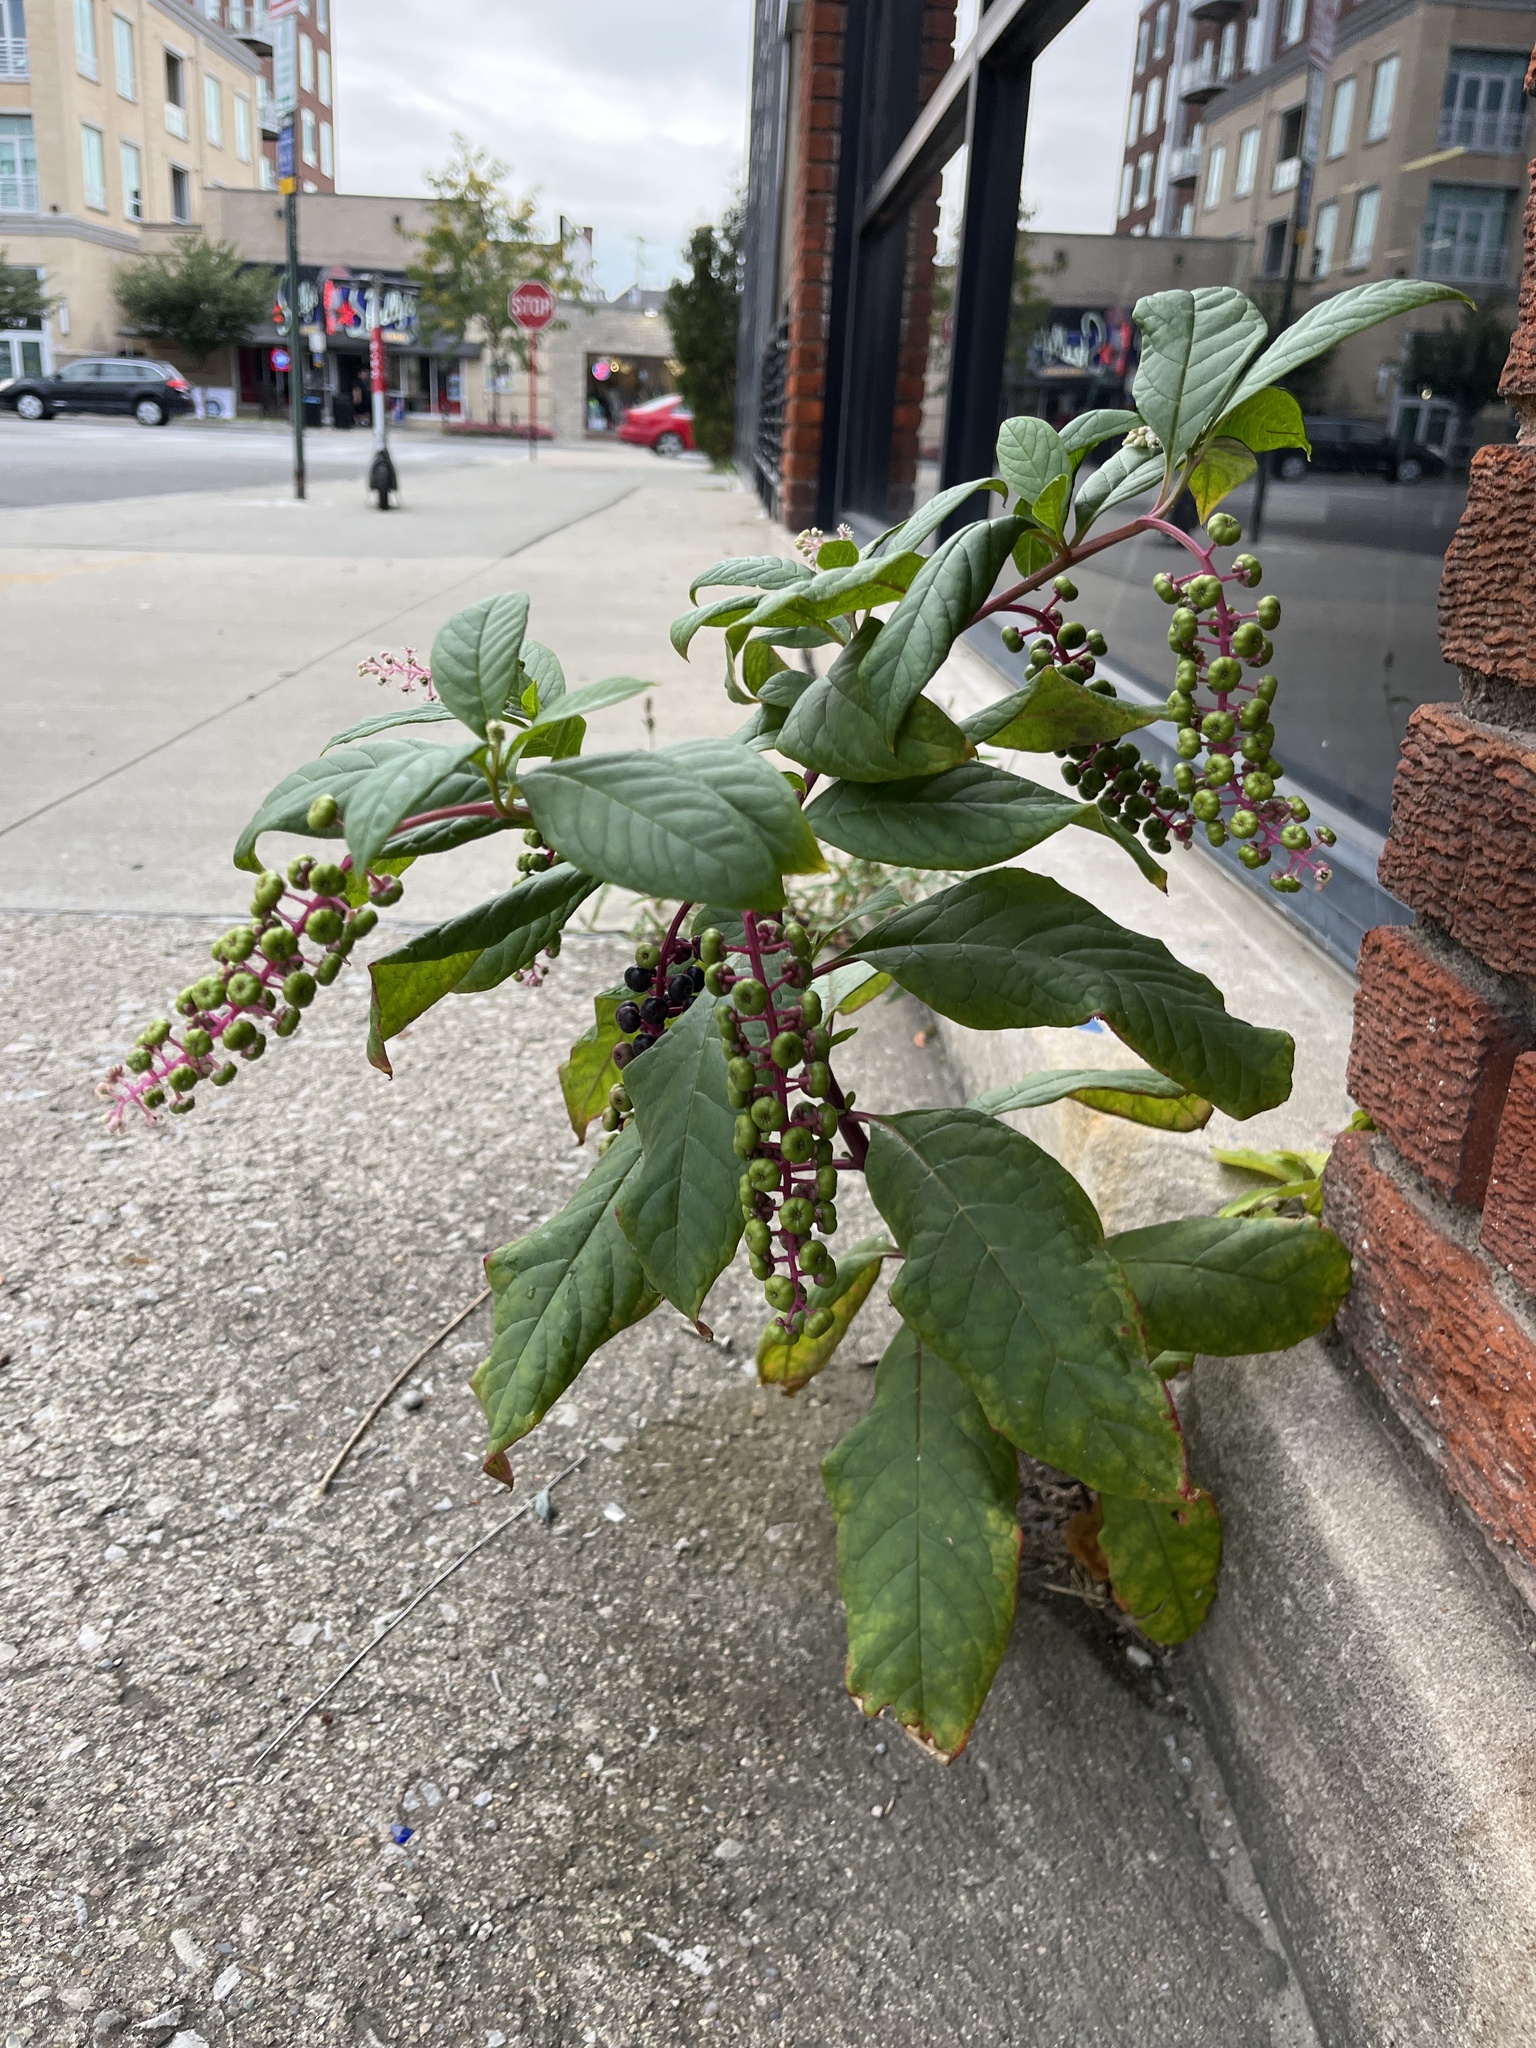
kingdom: Plantae
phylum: Tracheophyta
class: Magnoliopsida
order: Caryophyllales
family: Phytolaccaceae
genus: Phytolacca
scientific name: Phytolacca americana
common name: American pokeweed
